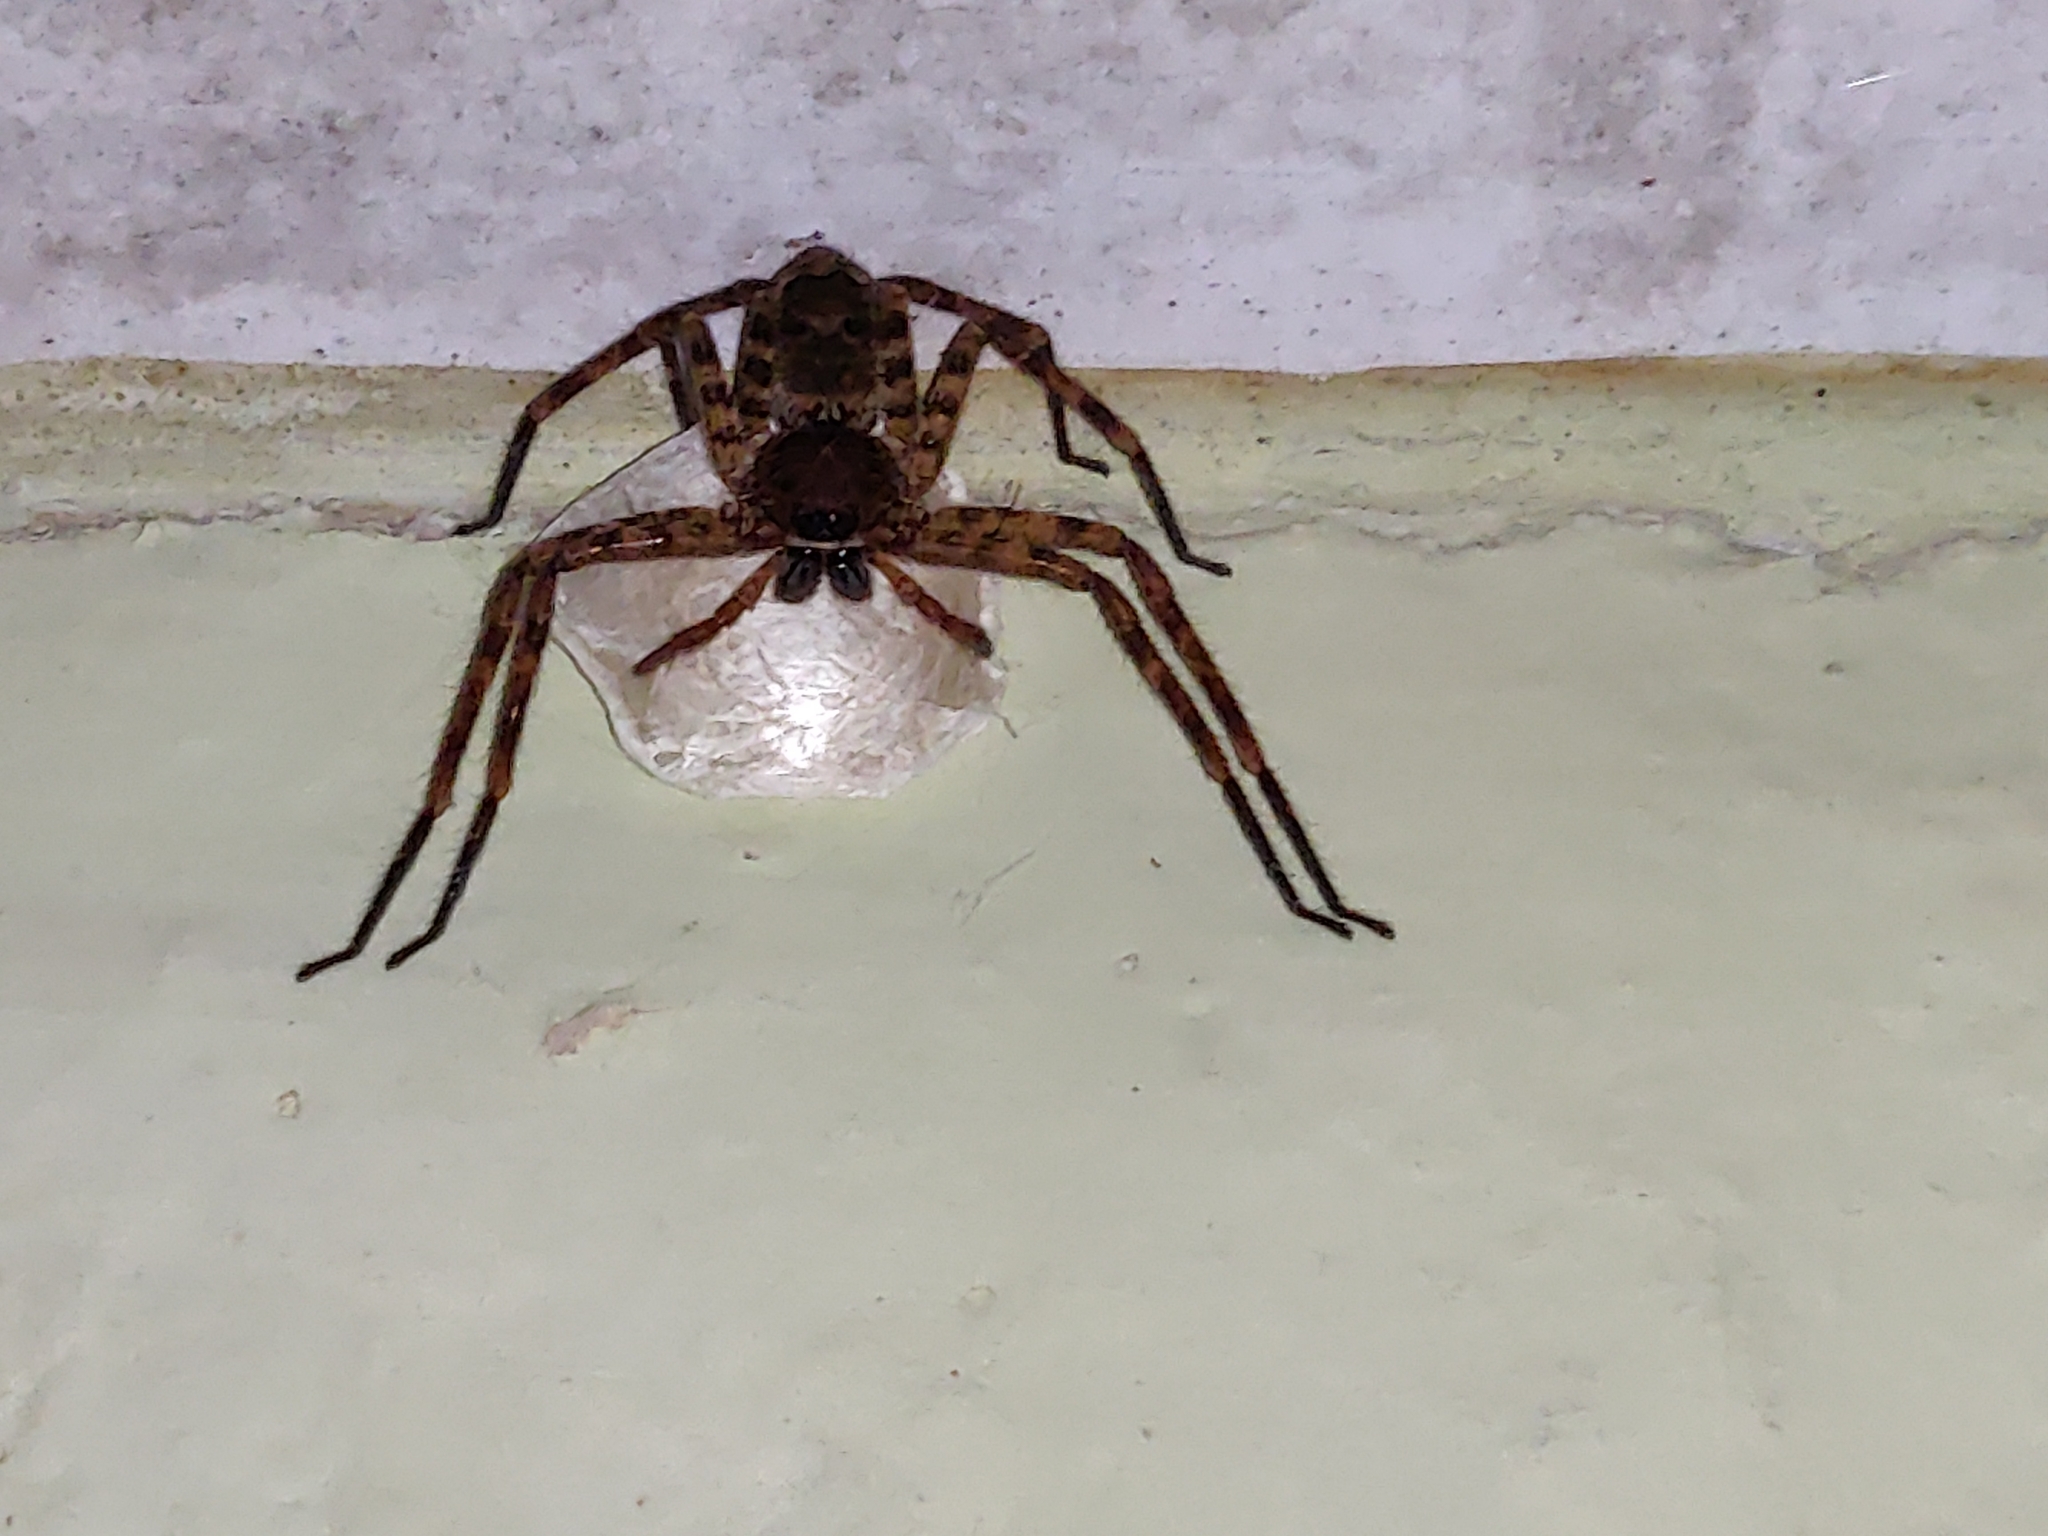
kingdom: Animalia
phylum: Arthropoda
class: Arachnida
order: Araneae
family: Sparassidae
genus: Heteropoda
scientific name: Heteropoda venatoria
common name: Huntsman spider
